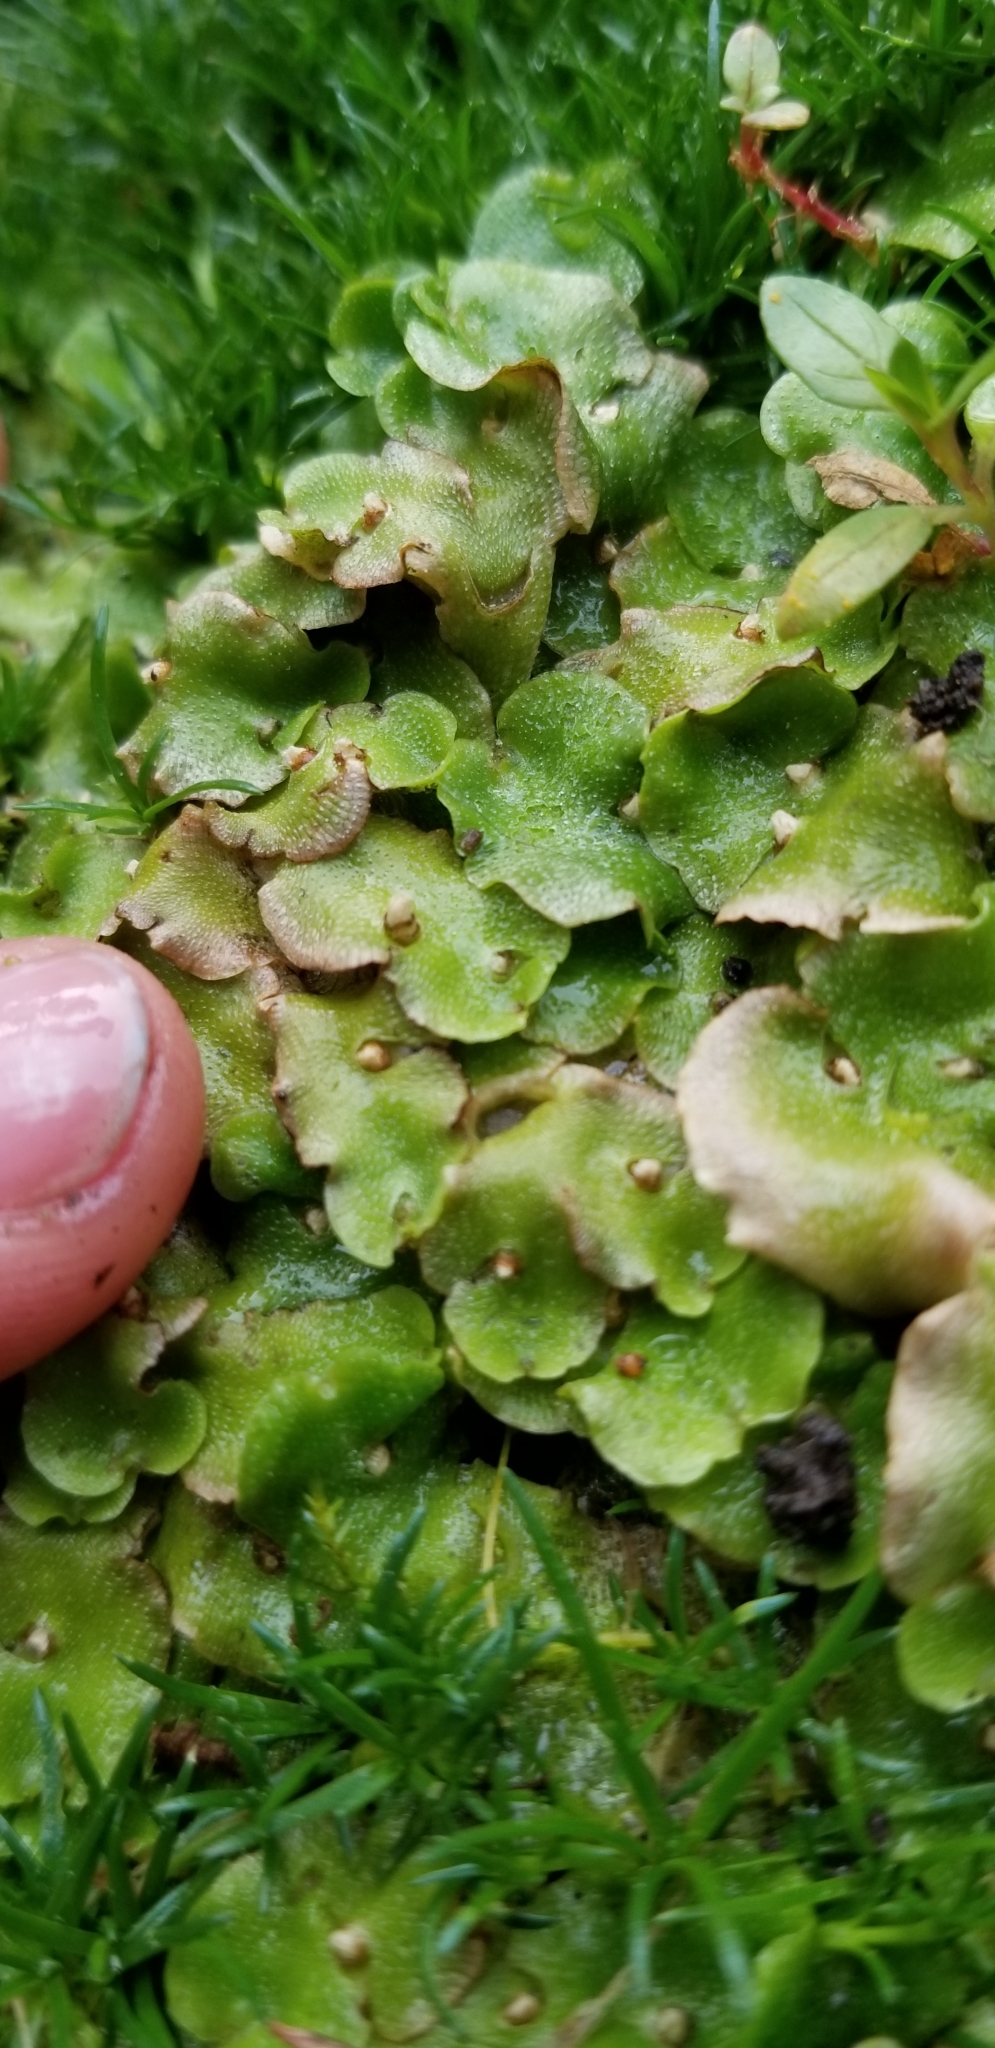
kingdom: Plantae
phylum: Marchantiophyta
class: Marchantiopsida
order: Lunulariales
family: Lunulariaceae
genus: Lunularia
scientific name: Lunularia cruciata
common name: Crescent-cup liverwort
